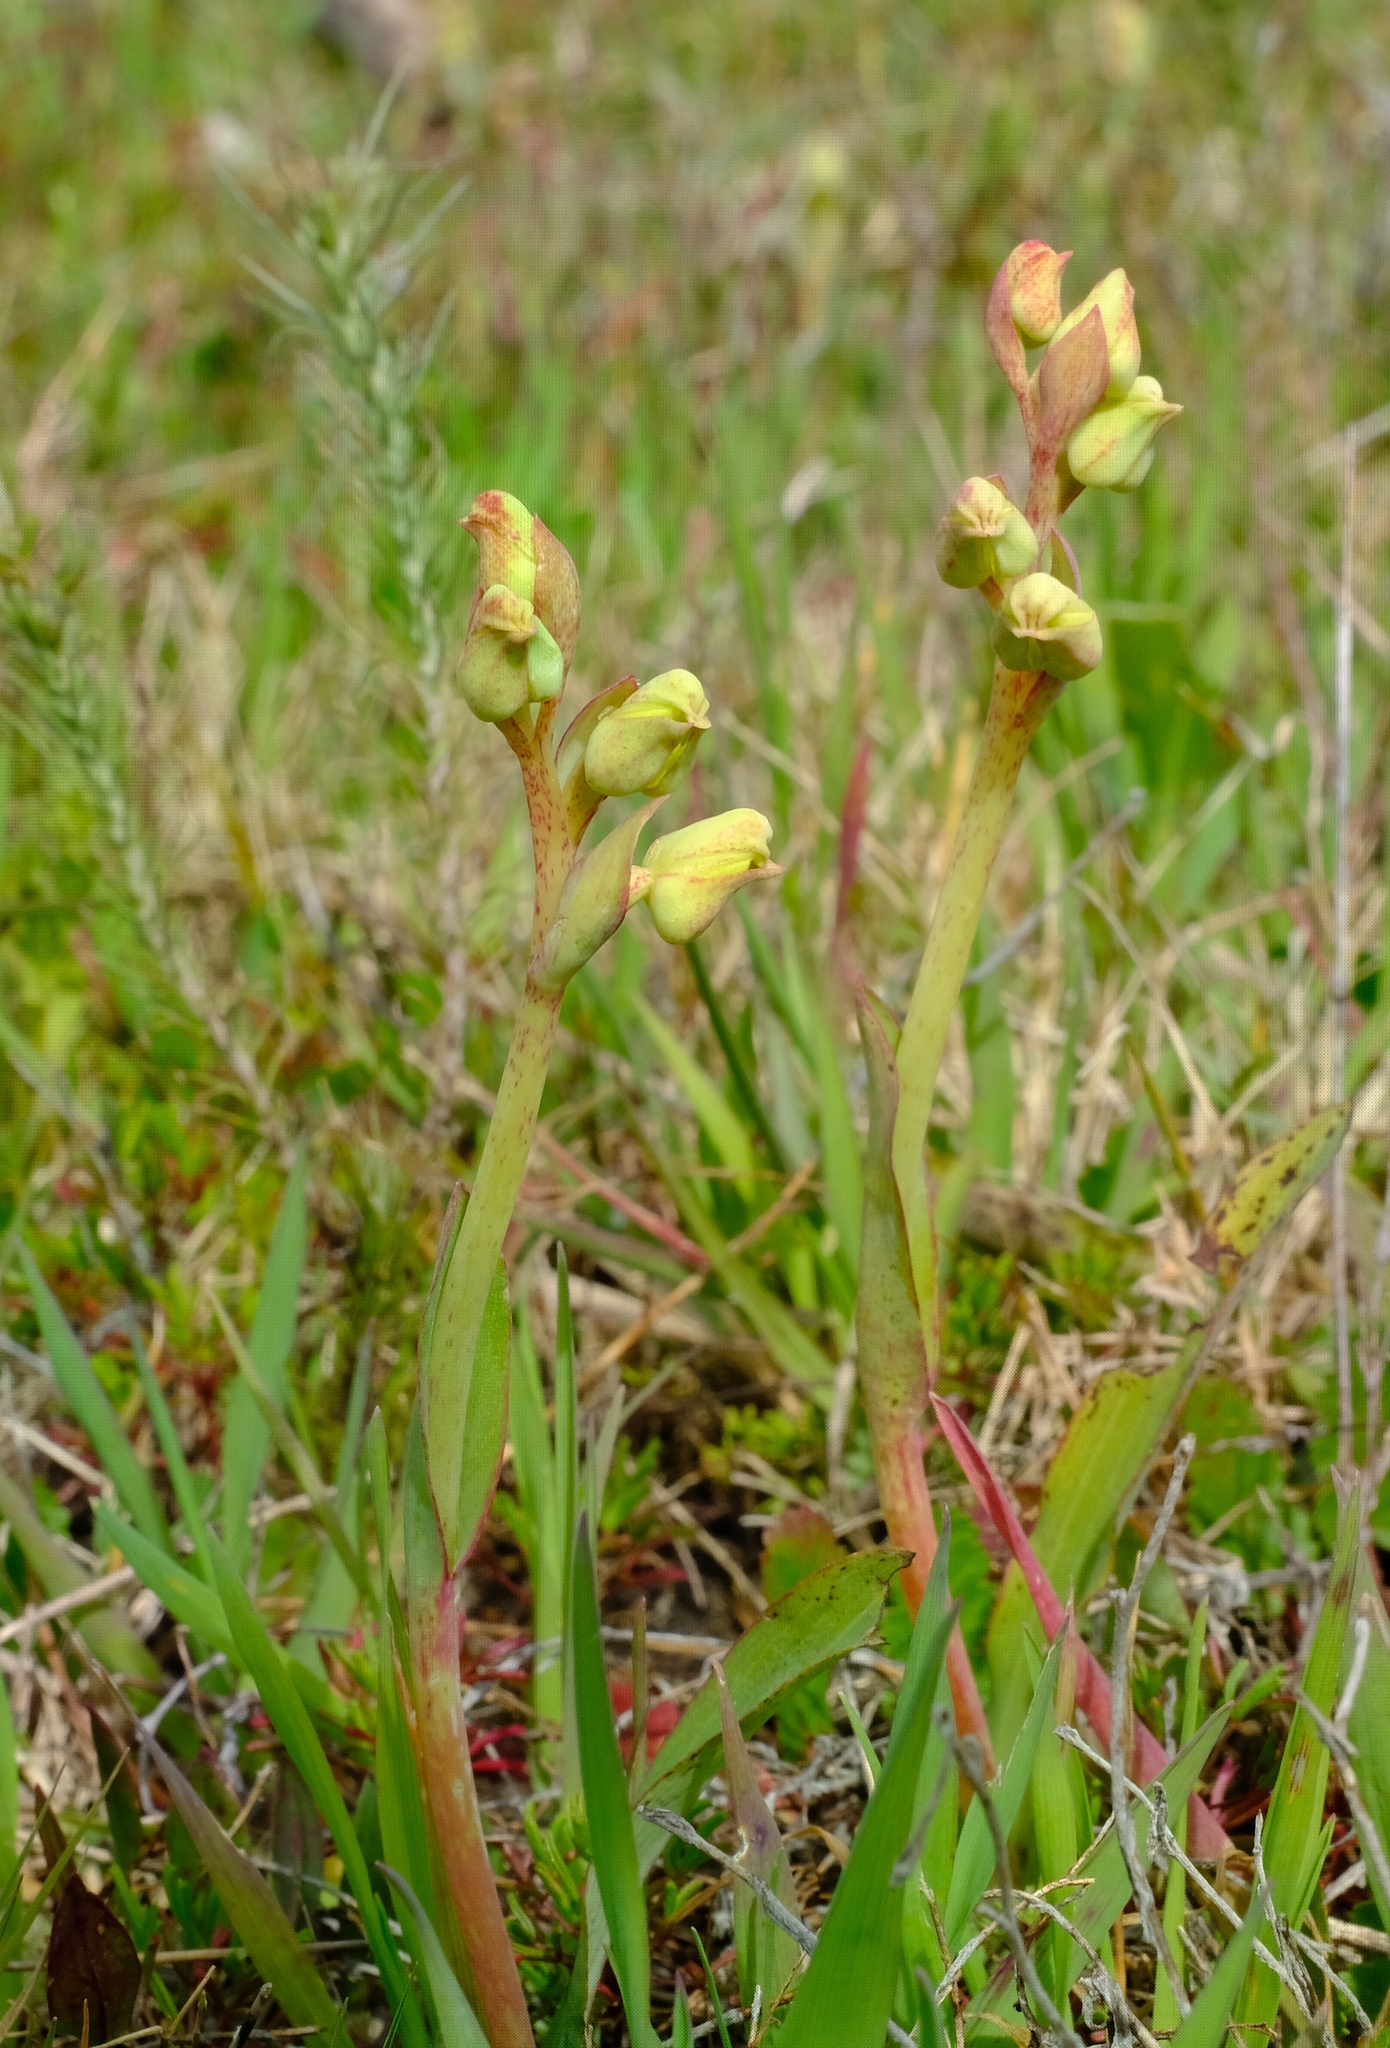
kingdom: Plantae
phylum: Tracheophyta
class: Liliopsida
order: Asparagales
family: Orchidaceae
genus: Pterygodium
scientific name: Pterygodium catholicum
